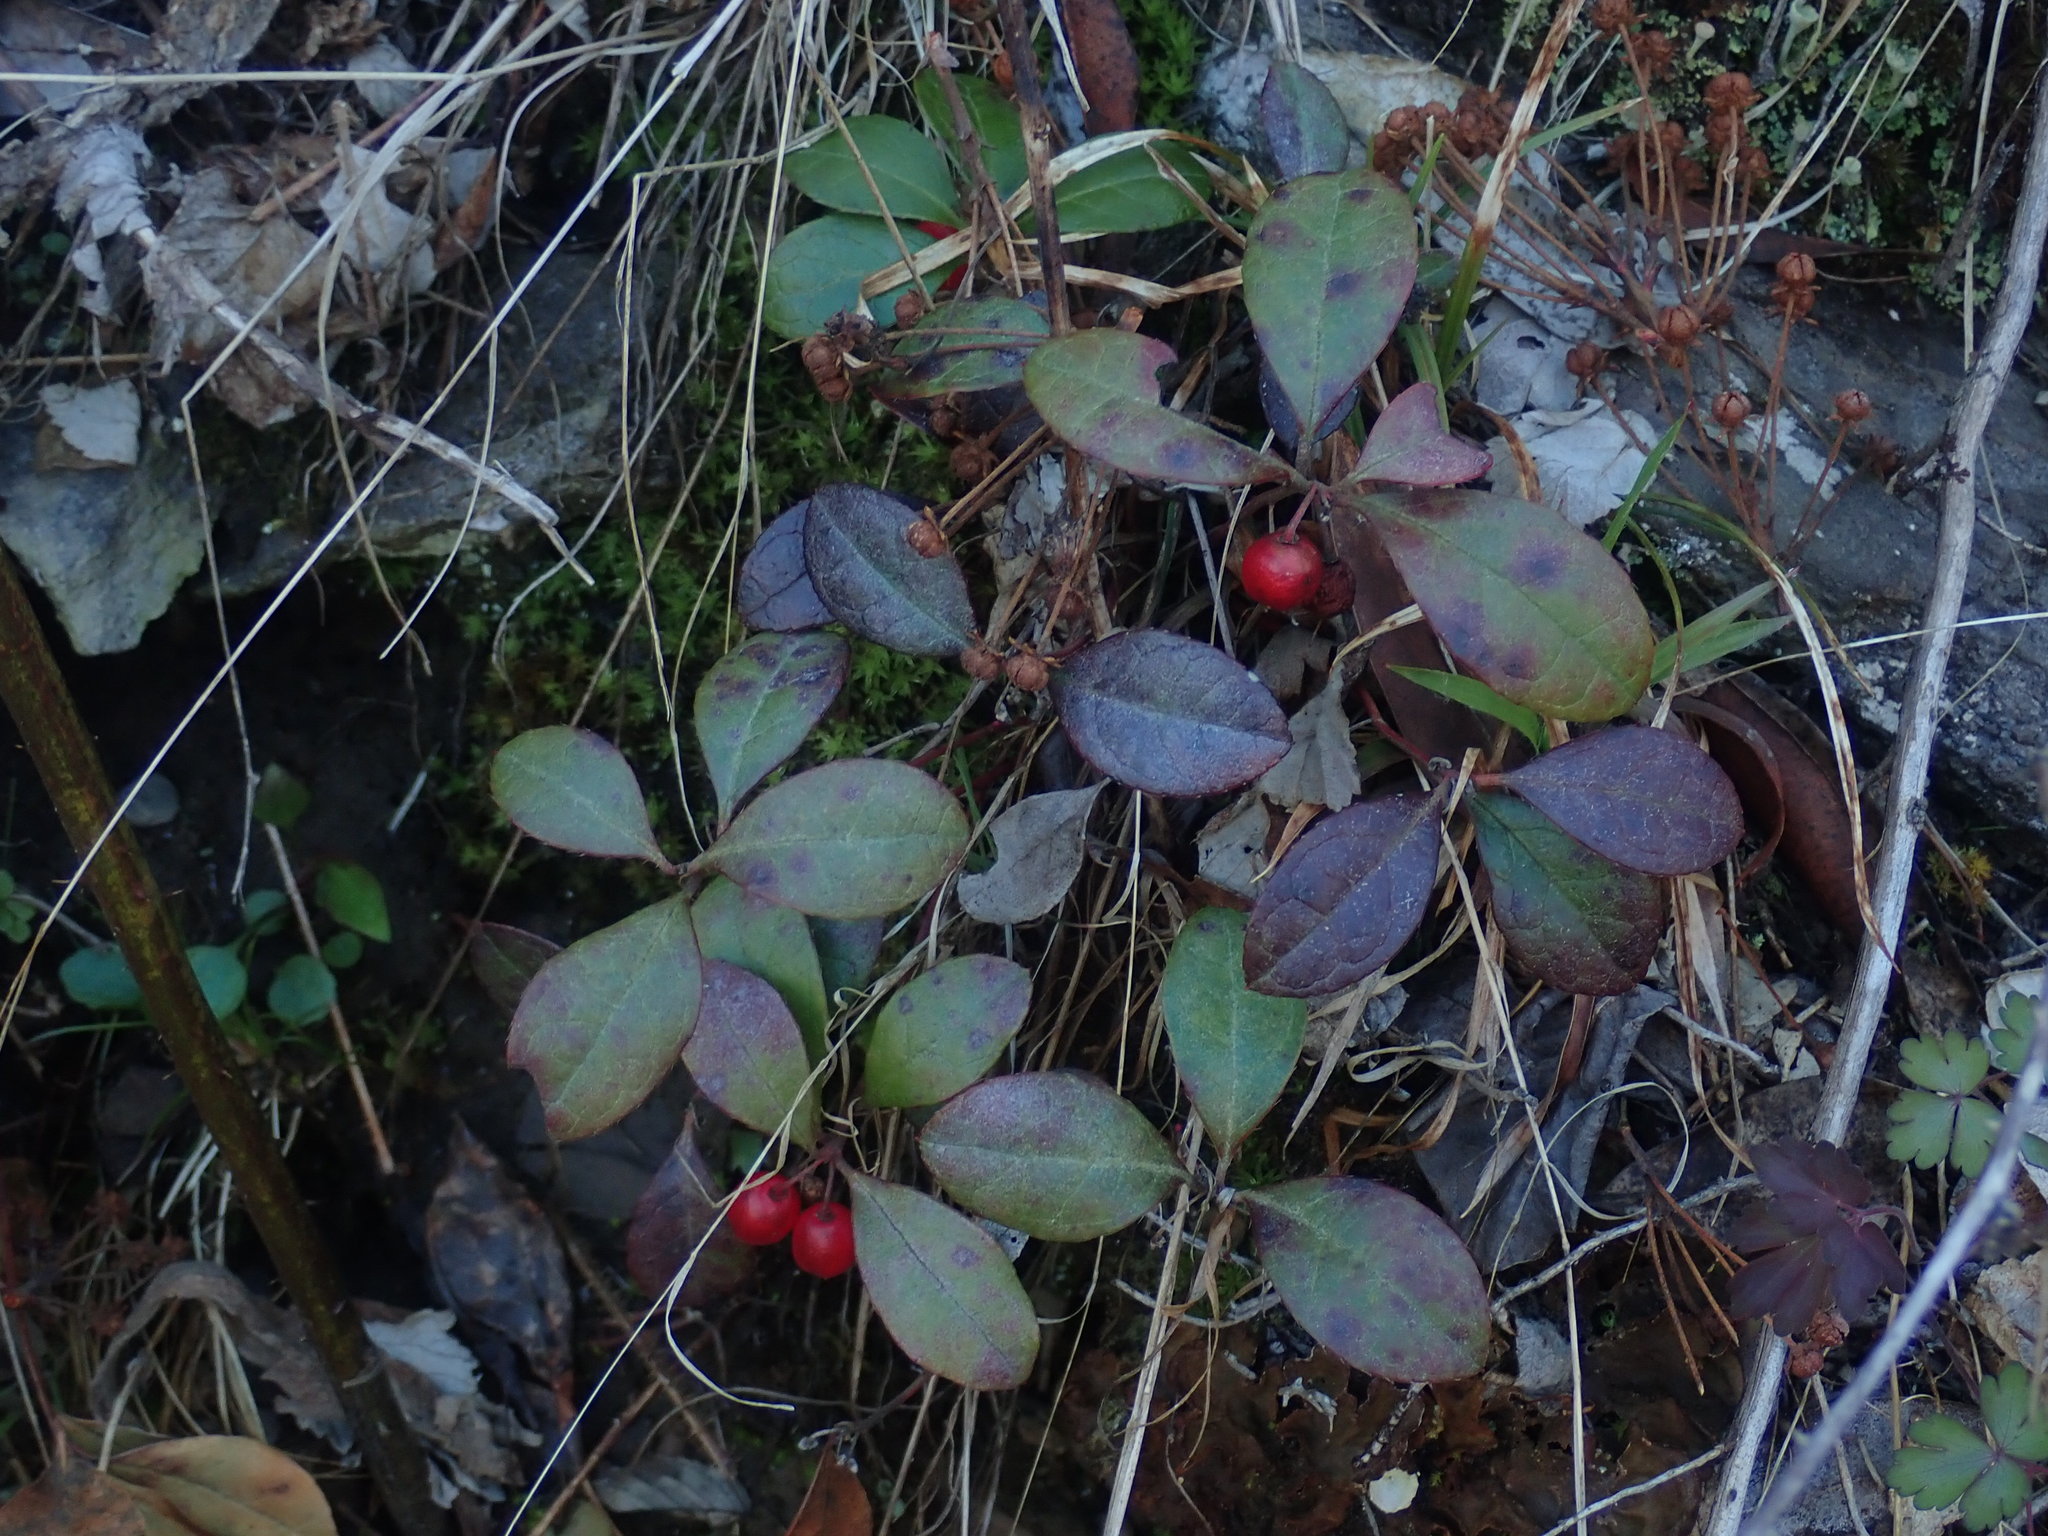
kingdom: Plantae
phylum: Tracheophyta
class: Magnoliopsida
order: Ericales
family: Ericaceae
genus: Gaultheria
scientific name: Gaultheria procumbens
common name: Checkerberry
